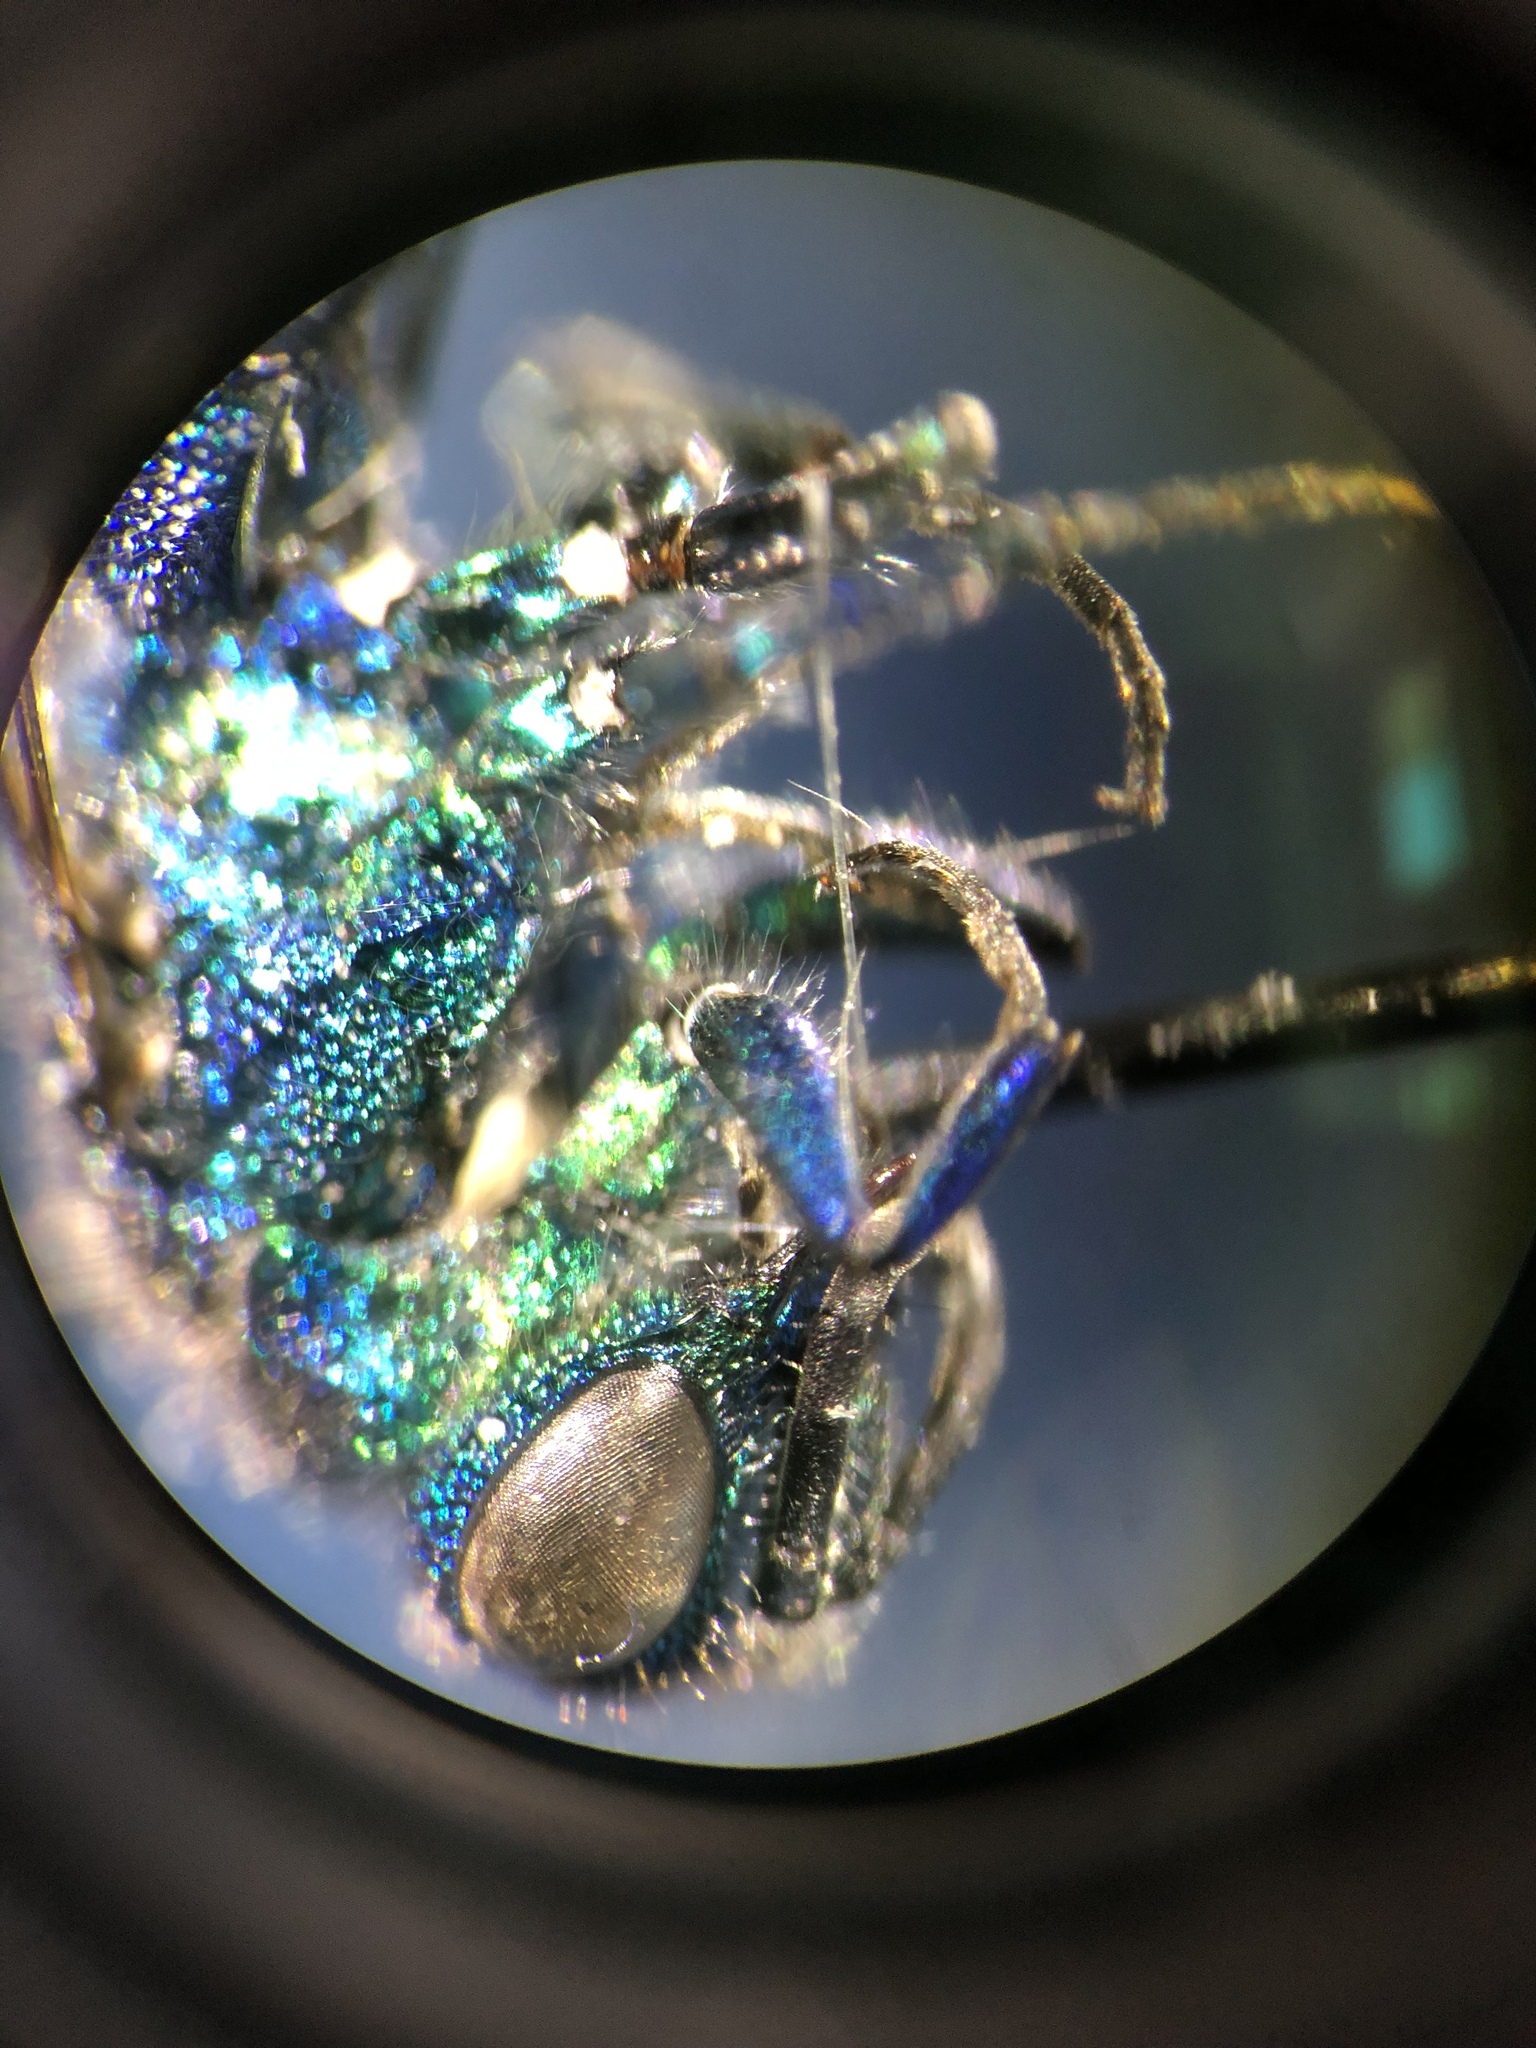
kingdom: Animalia
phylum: Arthropoda
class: Insecta
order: Hymenoptera
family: Chrysididae
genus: Chrysis
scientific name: Chrysis iris
